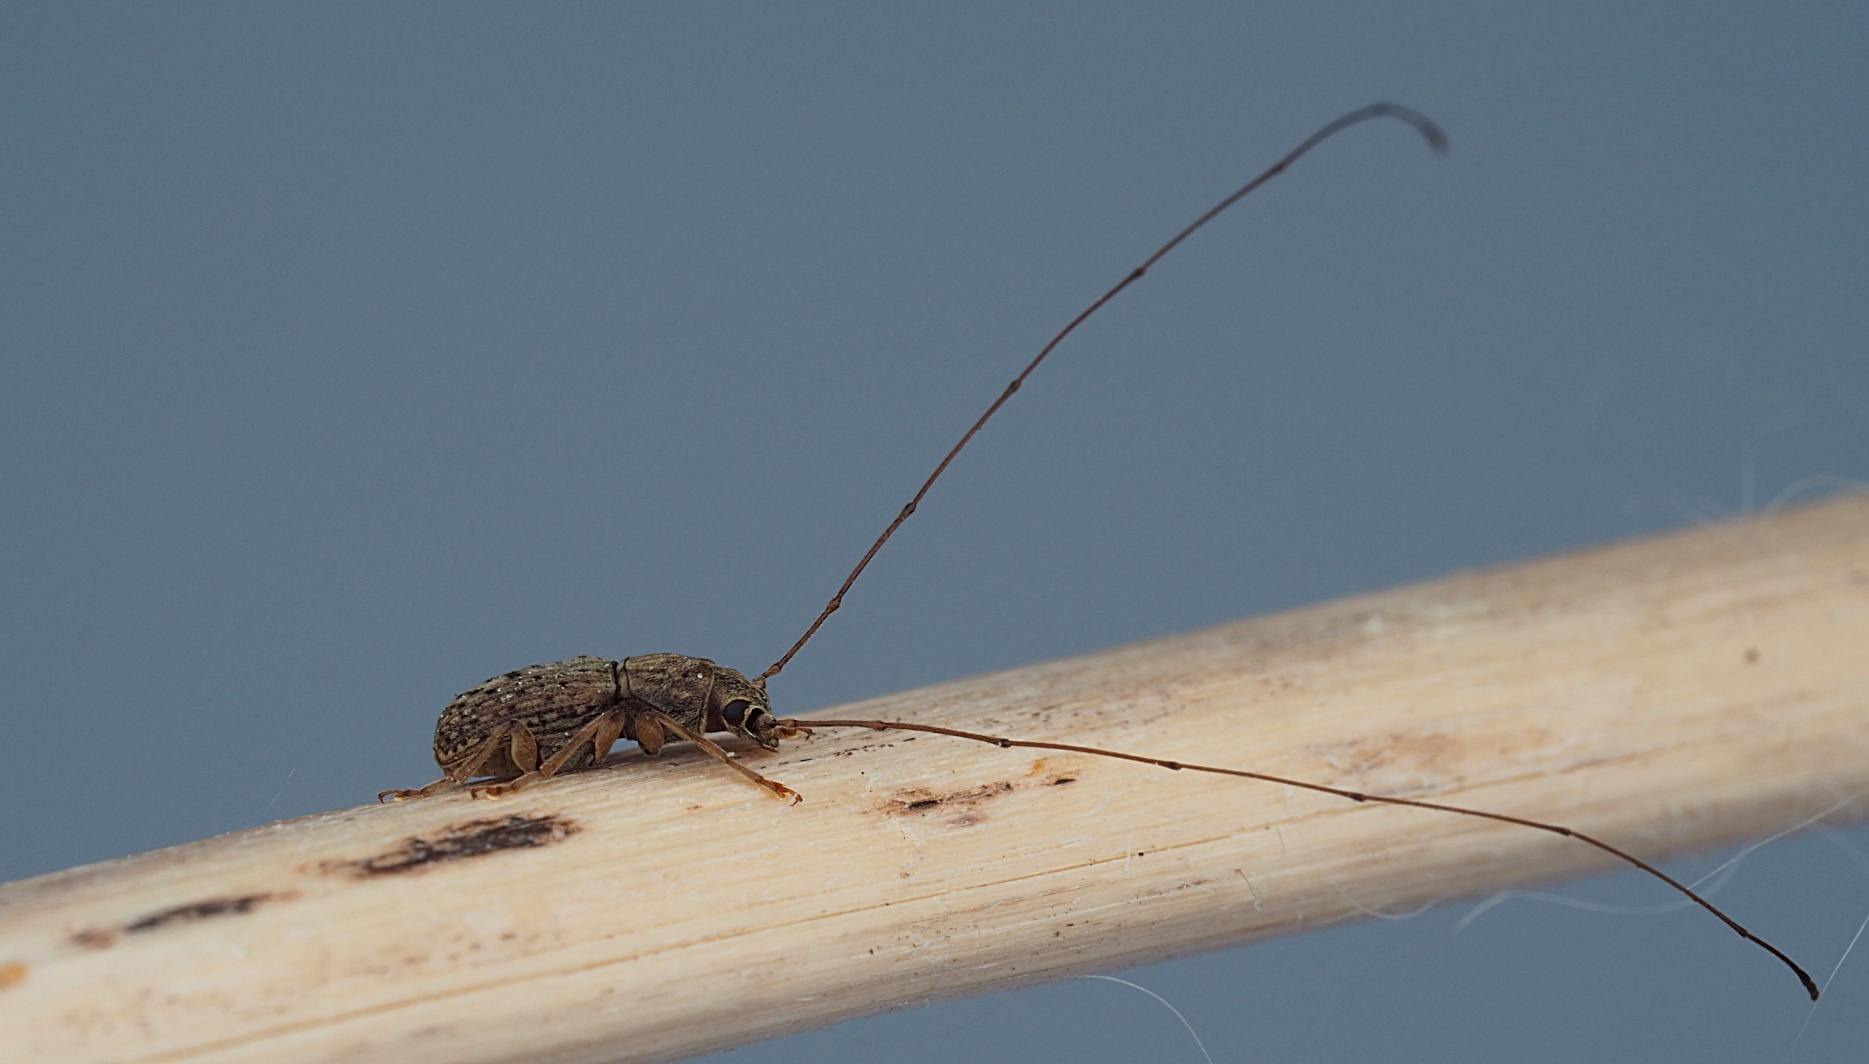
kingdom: Animalia
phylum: Arthropoda
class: Insecta
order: Coleoptera
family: Anthribidae
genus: Arecopais
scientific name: Arecopais spectabilis
